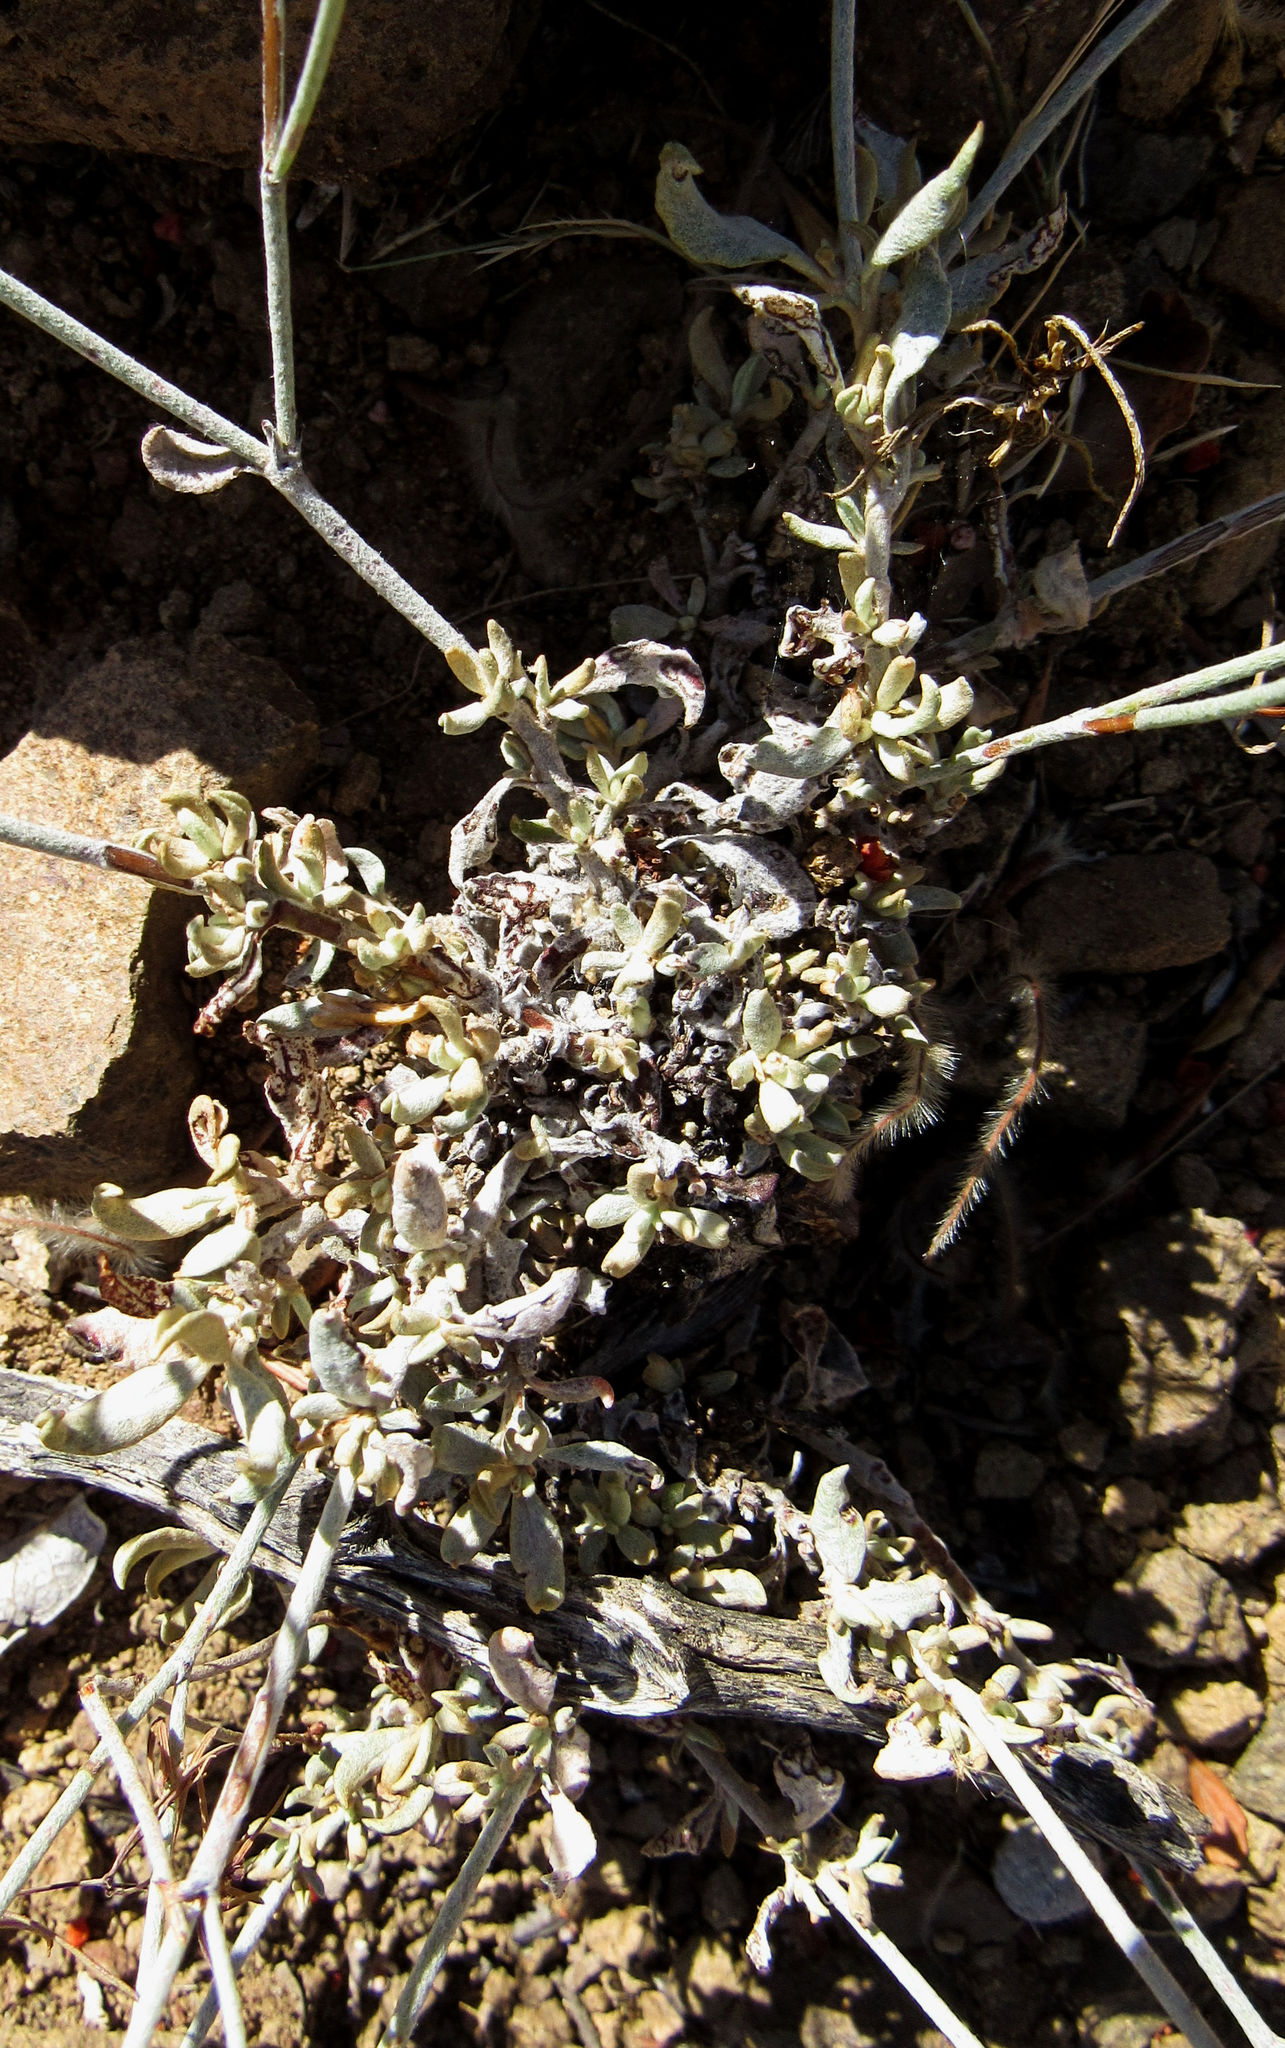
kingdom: Plantae
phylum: Tracheophyta
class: Magnoliopsida
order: Caryophyllales
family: Polygonaceae
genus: Eriogonum
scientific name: Eriogonum wrightii
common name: Bastard-sage
